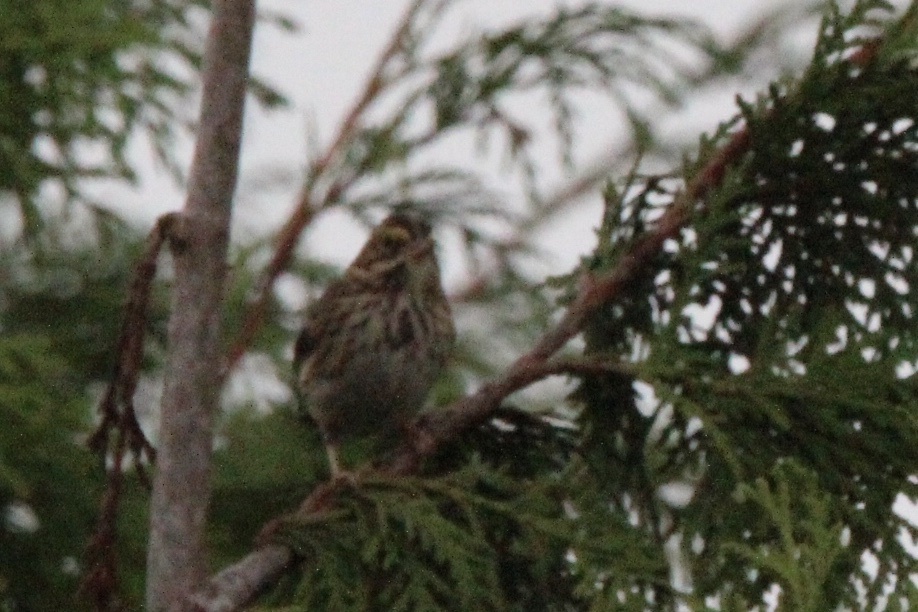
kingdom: Animalia
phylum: Chordata
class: Aves
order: Passeriformes
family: Passerellidae
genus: Passerculus
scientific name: Passerculus sandwichensis
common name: Savannah sparrow
